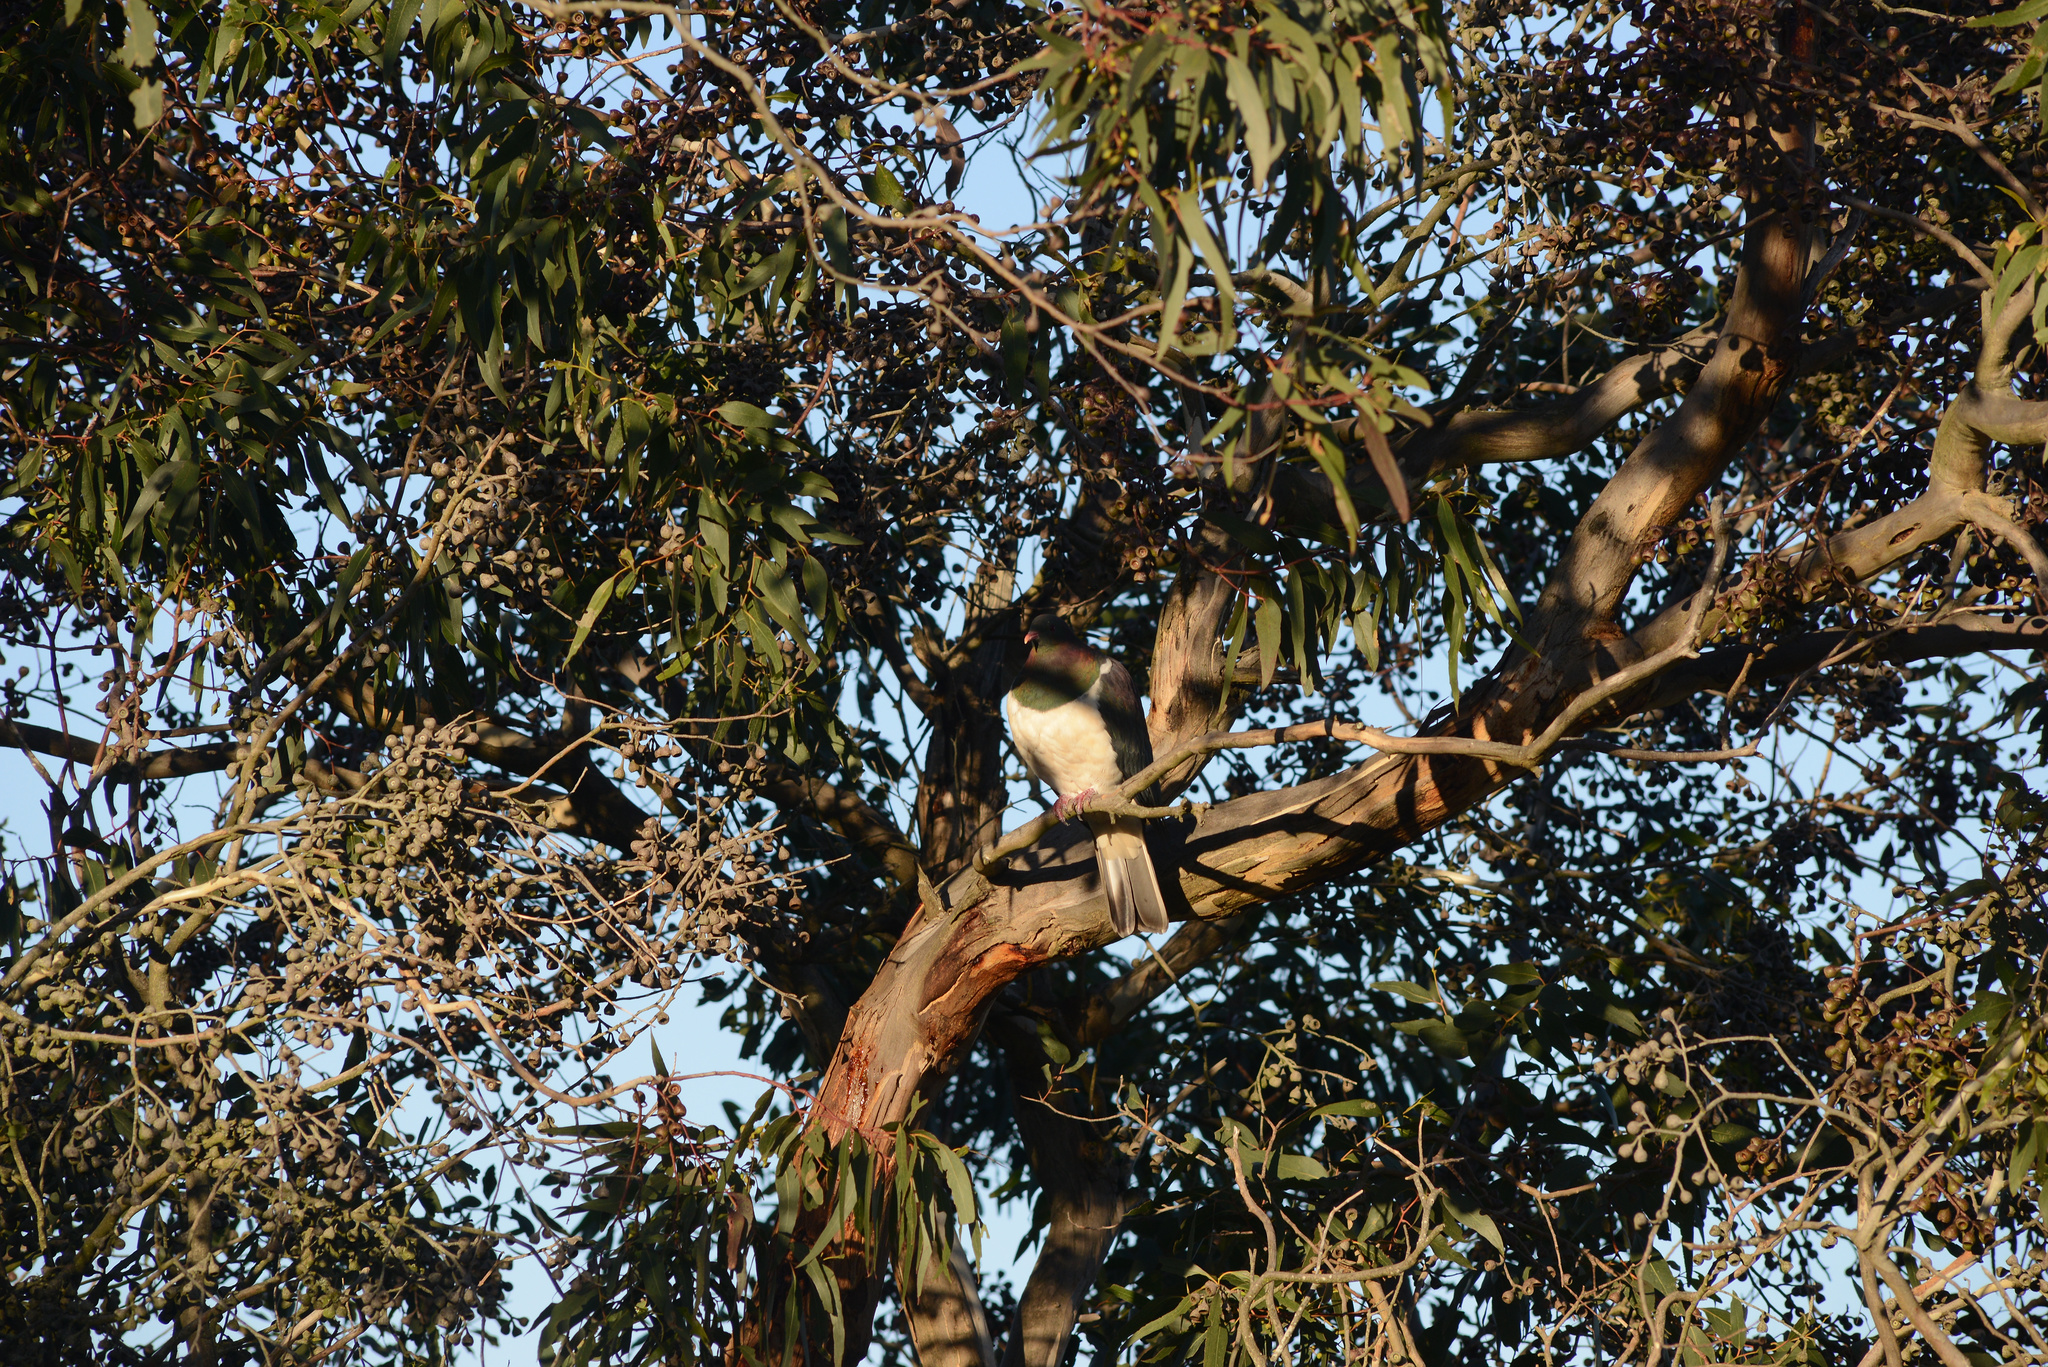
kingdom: Animalia
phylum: Chordata
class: Aves
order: Columbiformes
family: Columbidae
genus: Hemiphaga
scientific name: Hemiphaga novaeseelandiae
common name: New zealand pigeon
